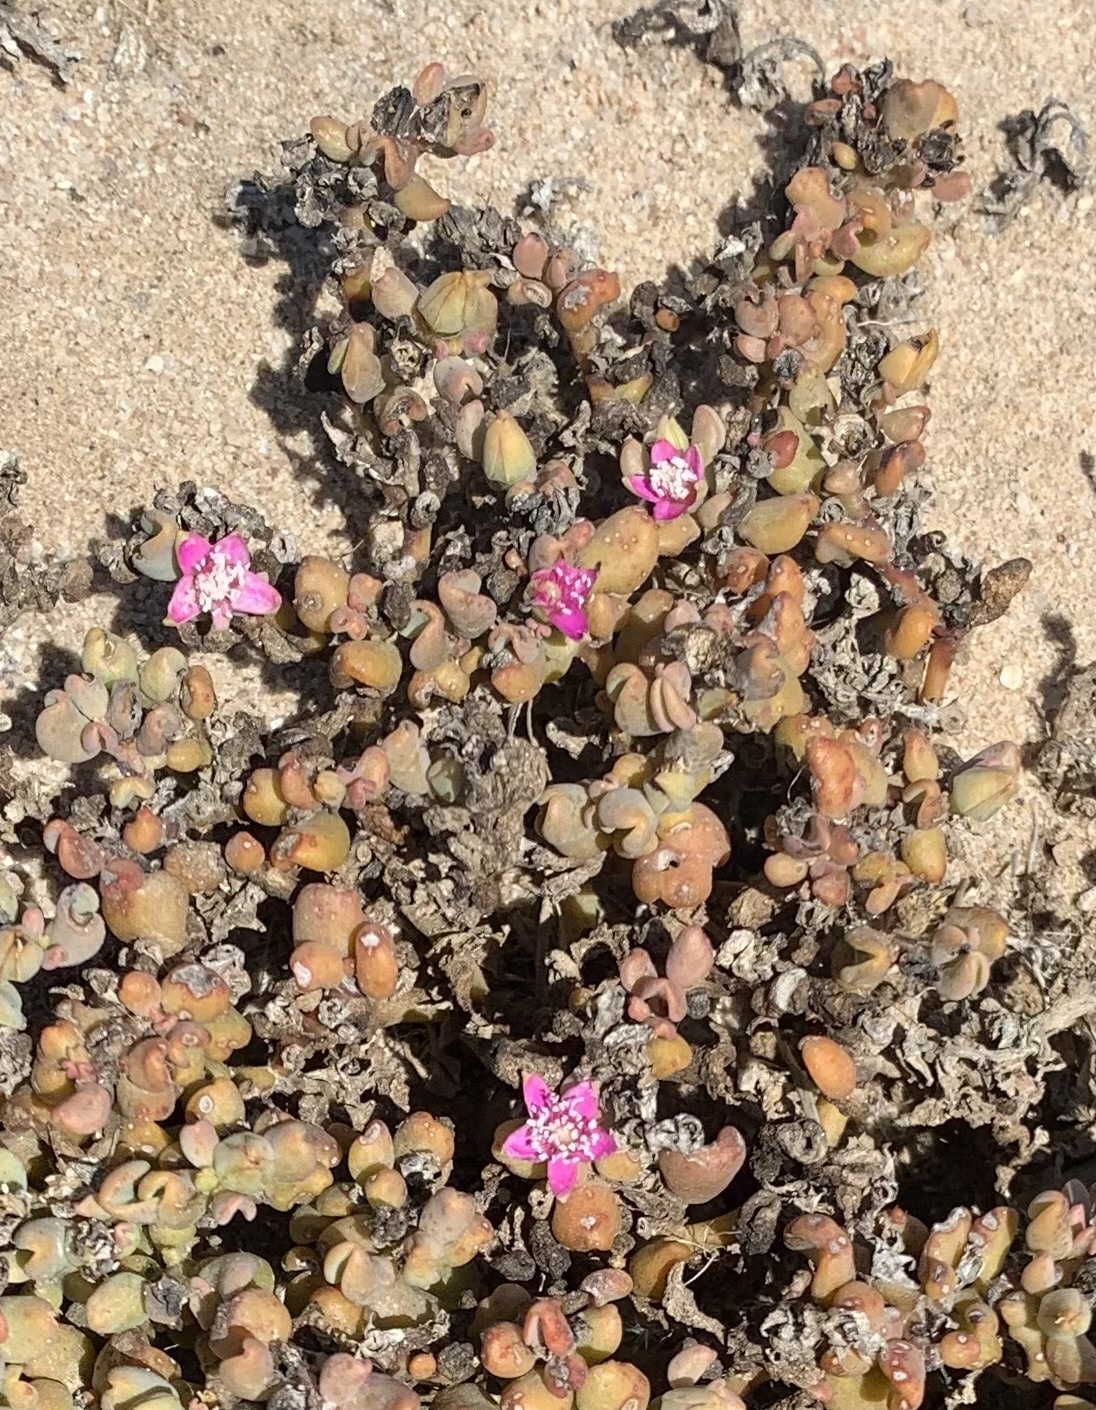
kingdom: Plantae
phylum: Tracheophyta
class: Magnoliopsida
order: Caryophyllales
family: Aizoaceae
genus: Sesuvium
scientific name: Sesuvium sesuvioides
